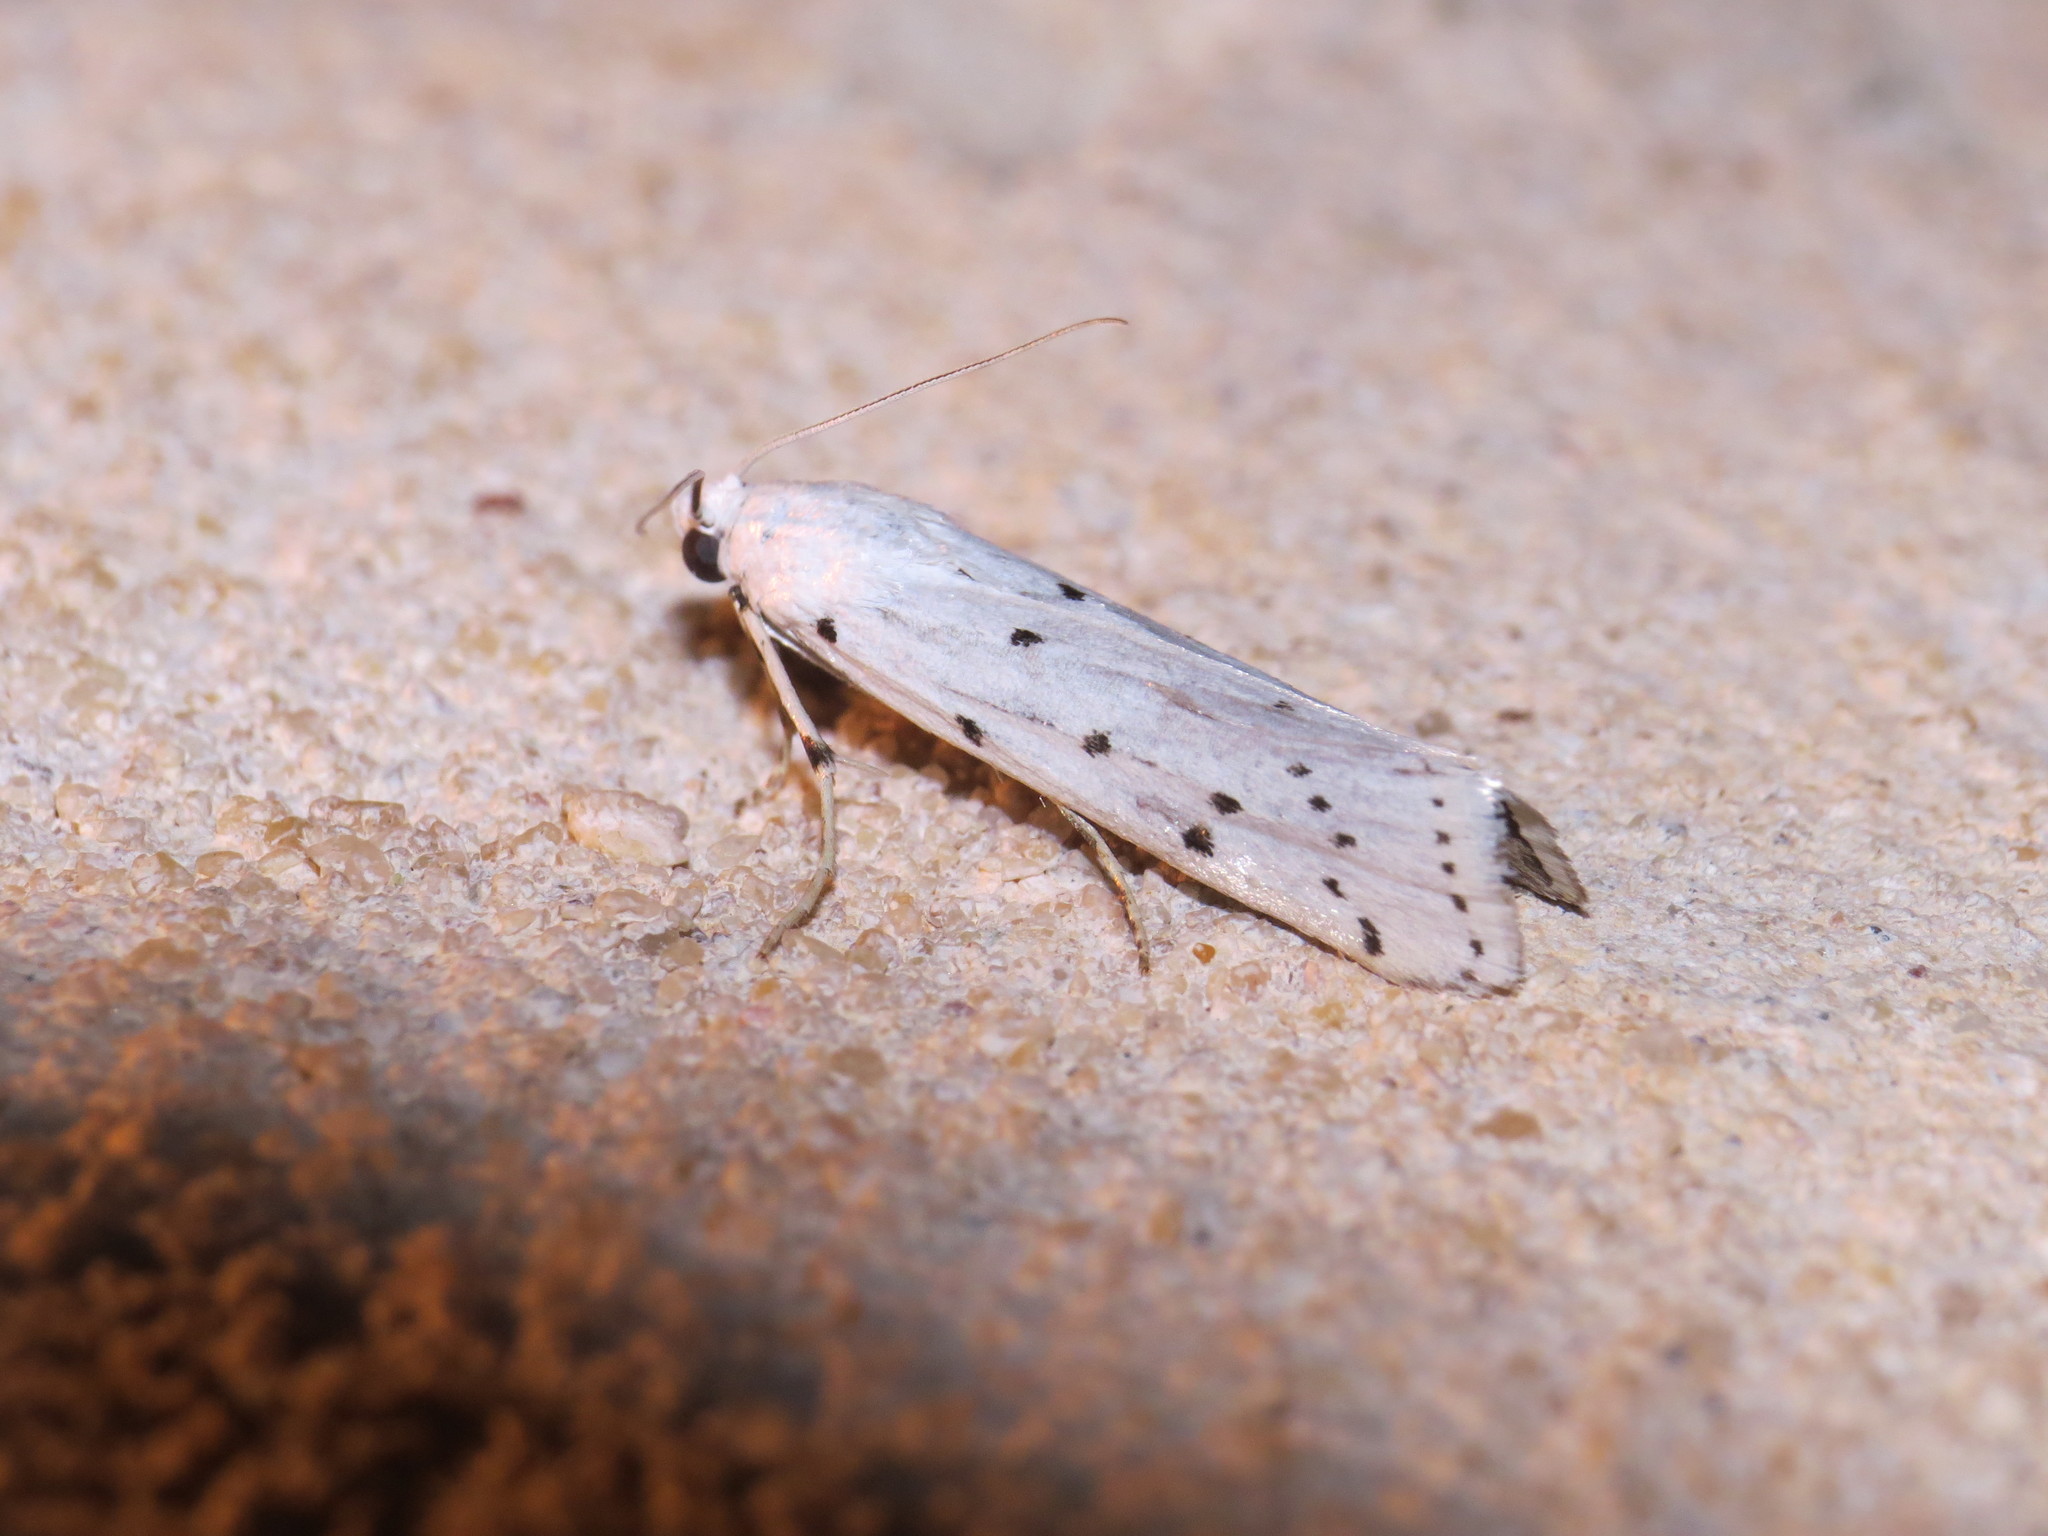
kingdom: Animalia
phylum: Arthropoda
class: Insecta
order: Lepidoptera
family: Pyralidae
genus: Myelois
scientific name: Myelois circumvoluta
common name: Thistle ermine
